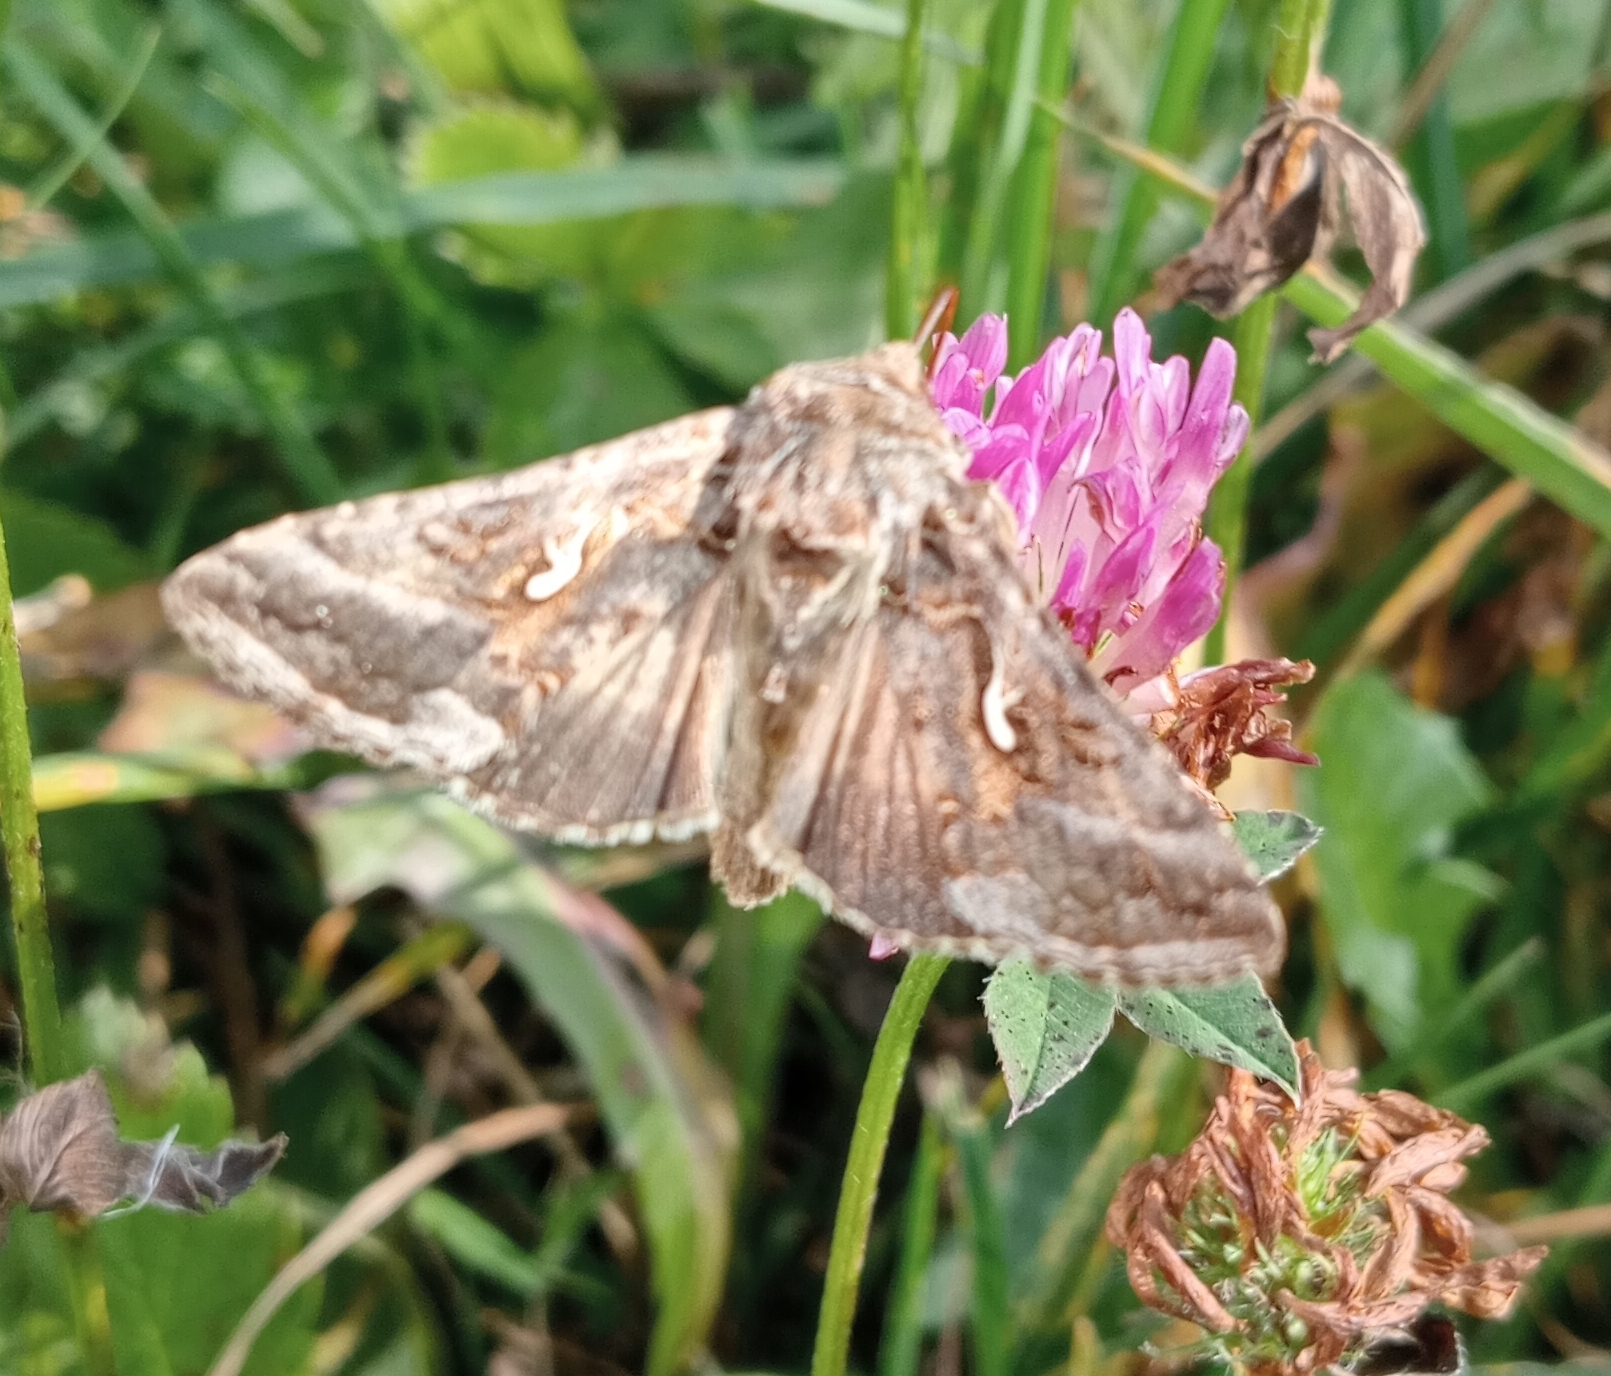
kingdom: Animalia
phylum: Arthropoda
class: Insecta
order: Lepidoptera
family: Noctuidae
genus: Autographa
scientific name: Autographa gamma
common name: Silver y
